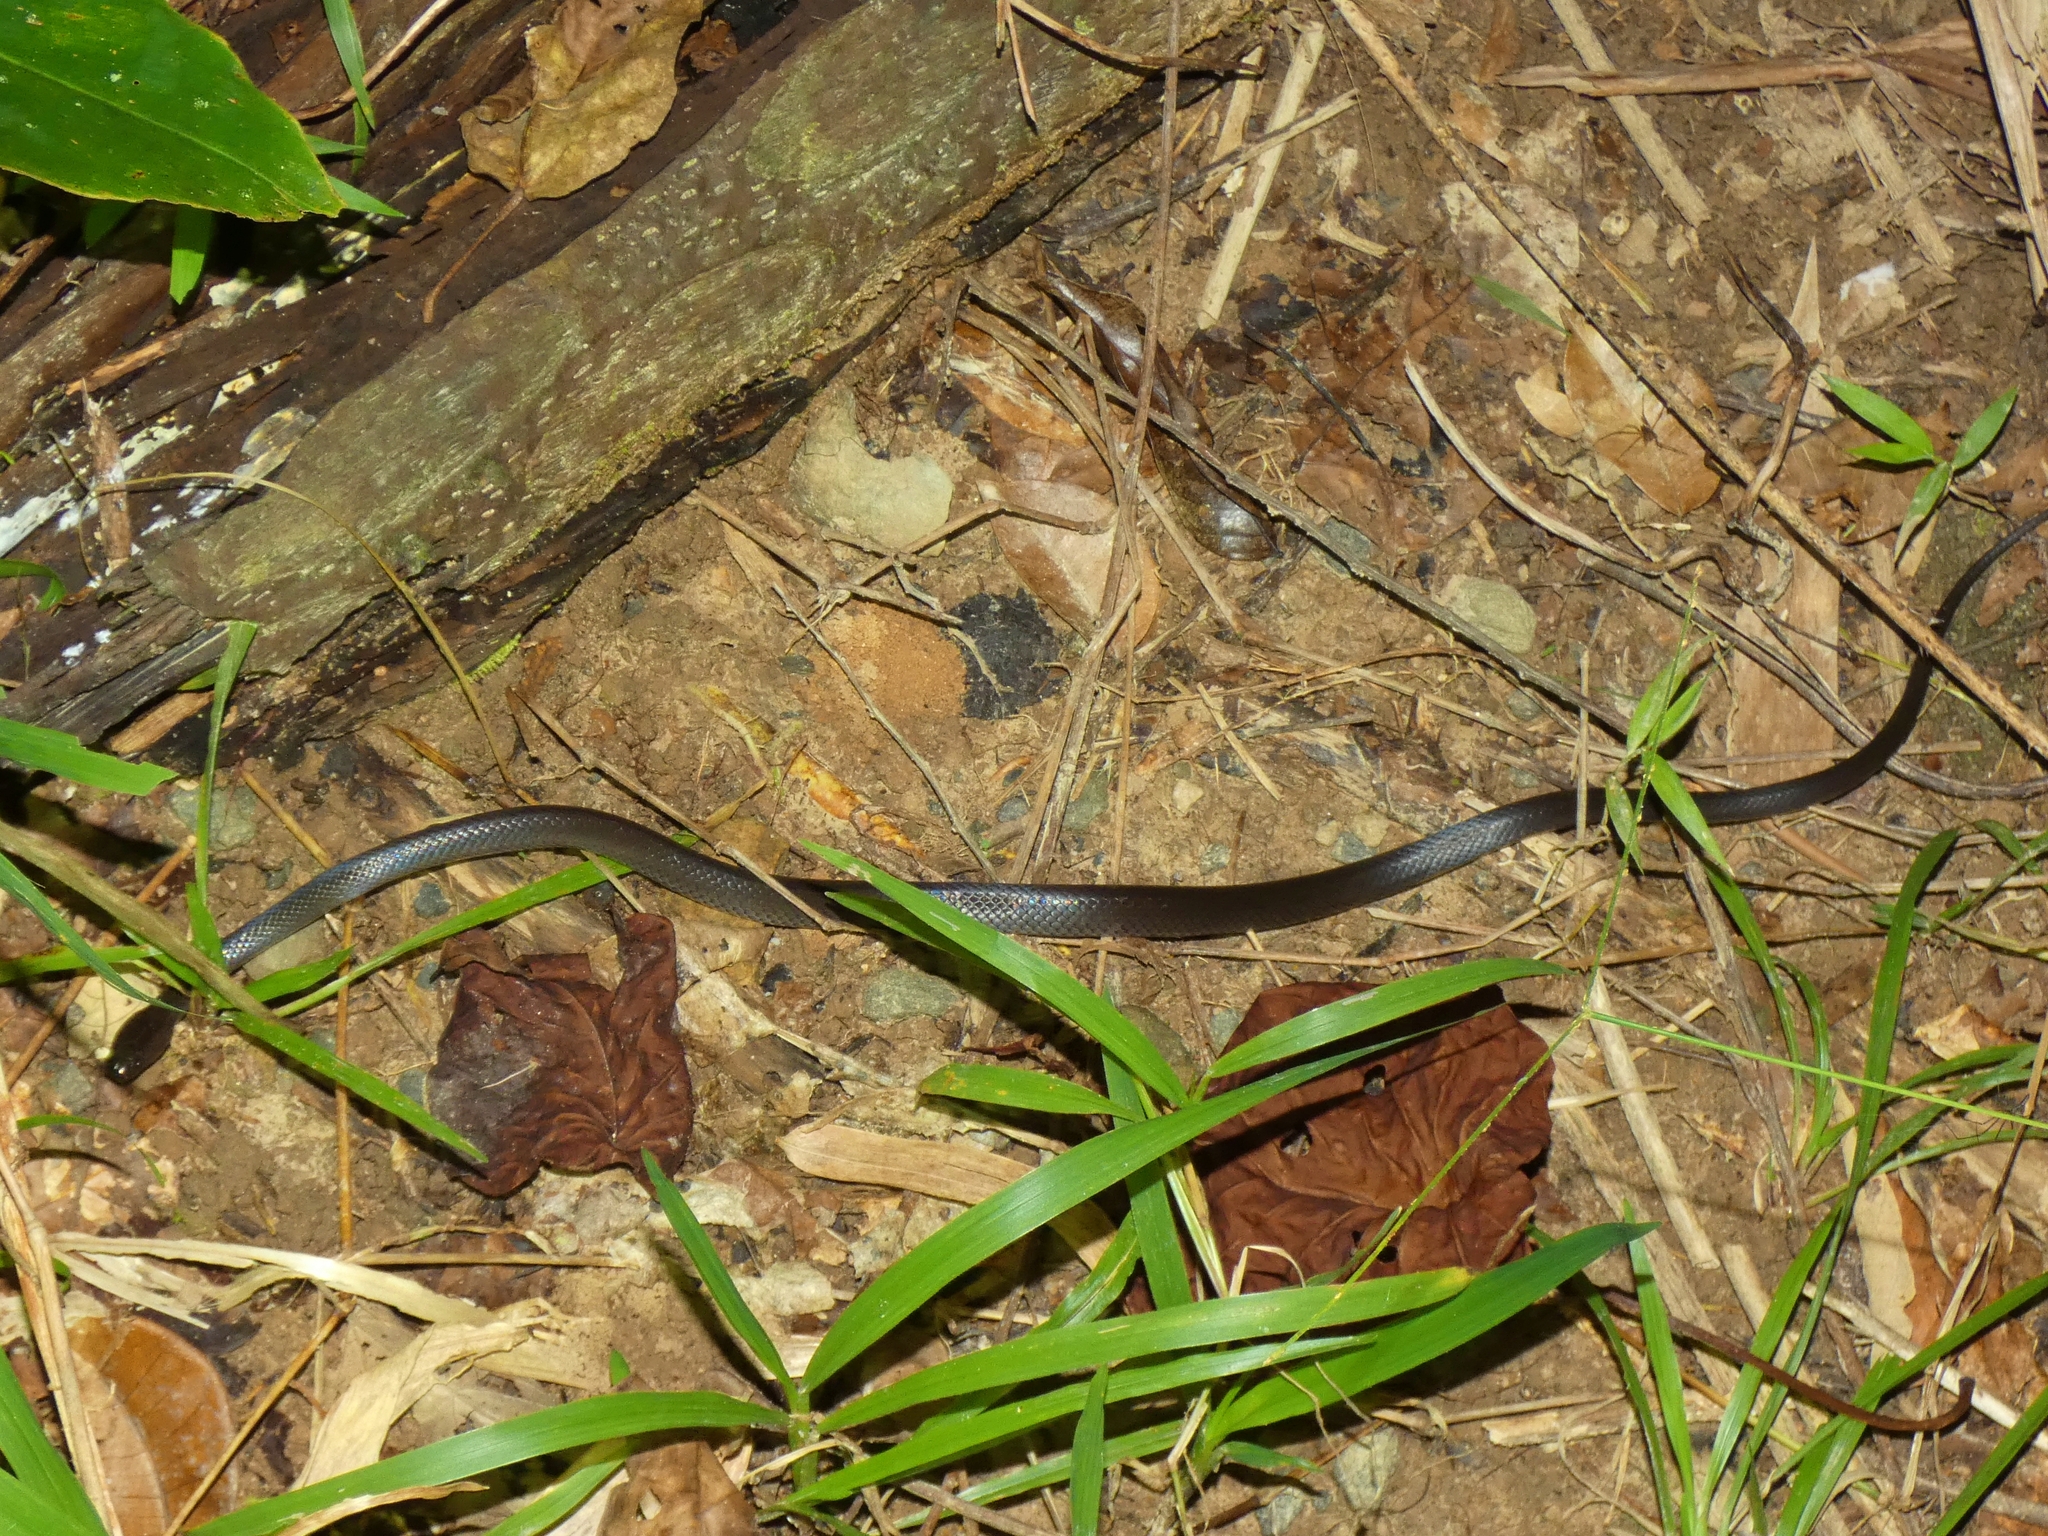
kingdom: Animalia
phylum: Chordata
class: Squamata
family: Elapidae
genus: Cryptophis
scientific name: Cryptophis nigrescens
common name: Eastern small-eyed snake
